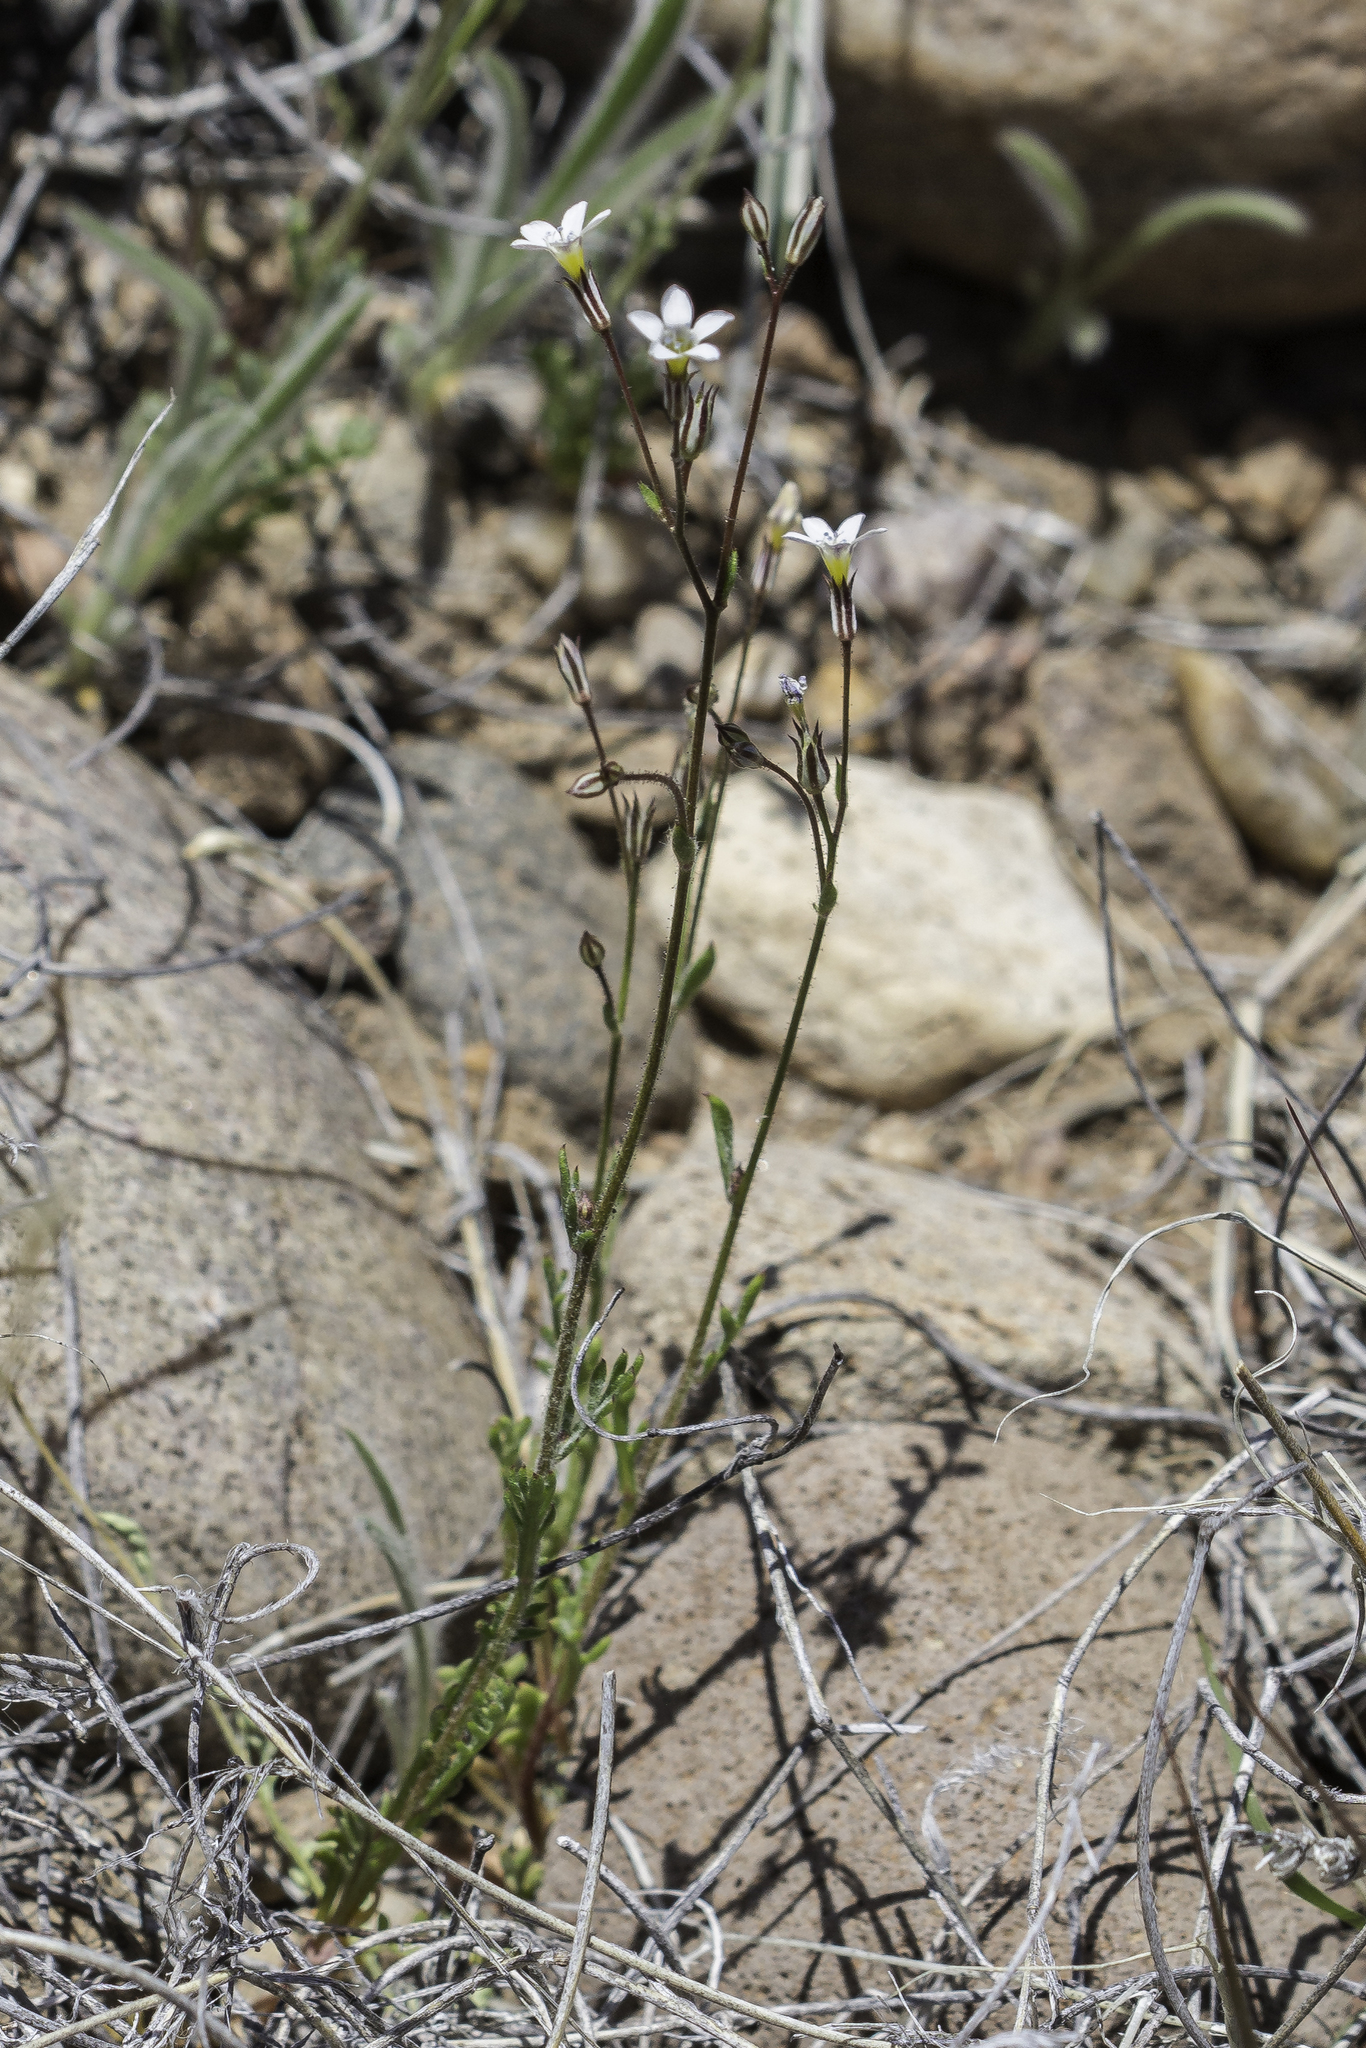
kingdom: Plantae
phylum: Tracheophyta
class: Magnoliopsida
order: Ericales
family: Polemoniaceae
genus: Gilia
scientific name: Gilia clokeyi
